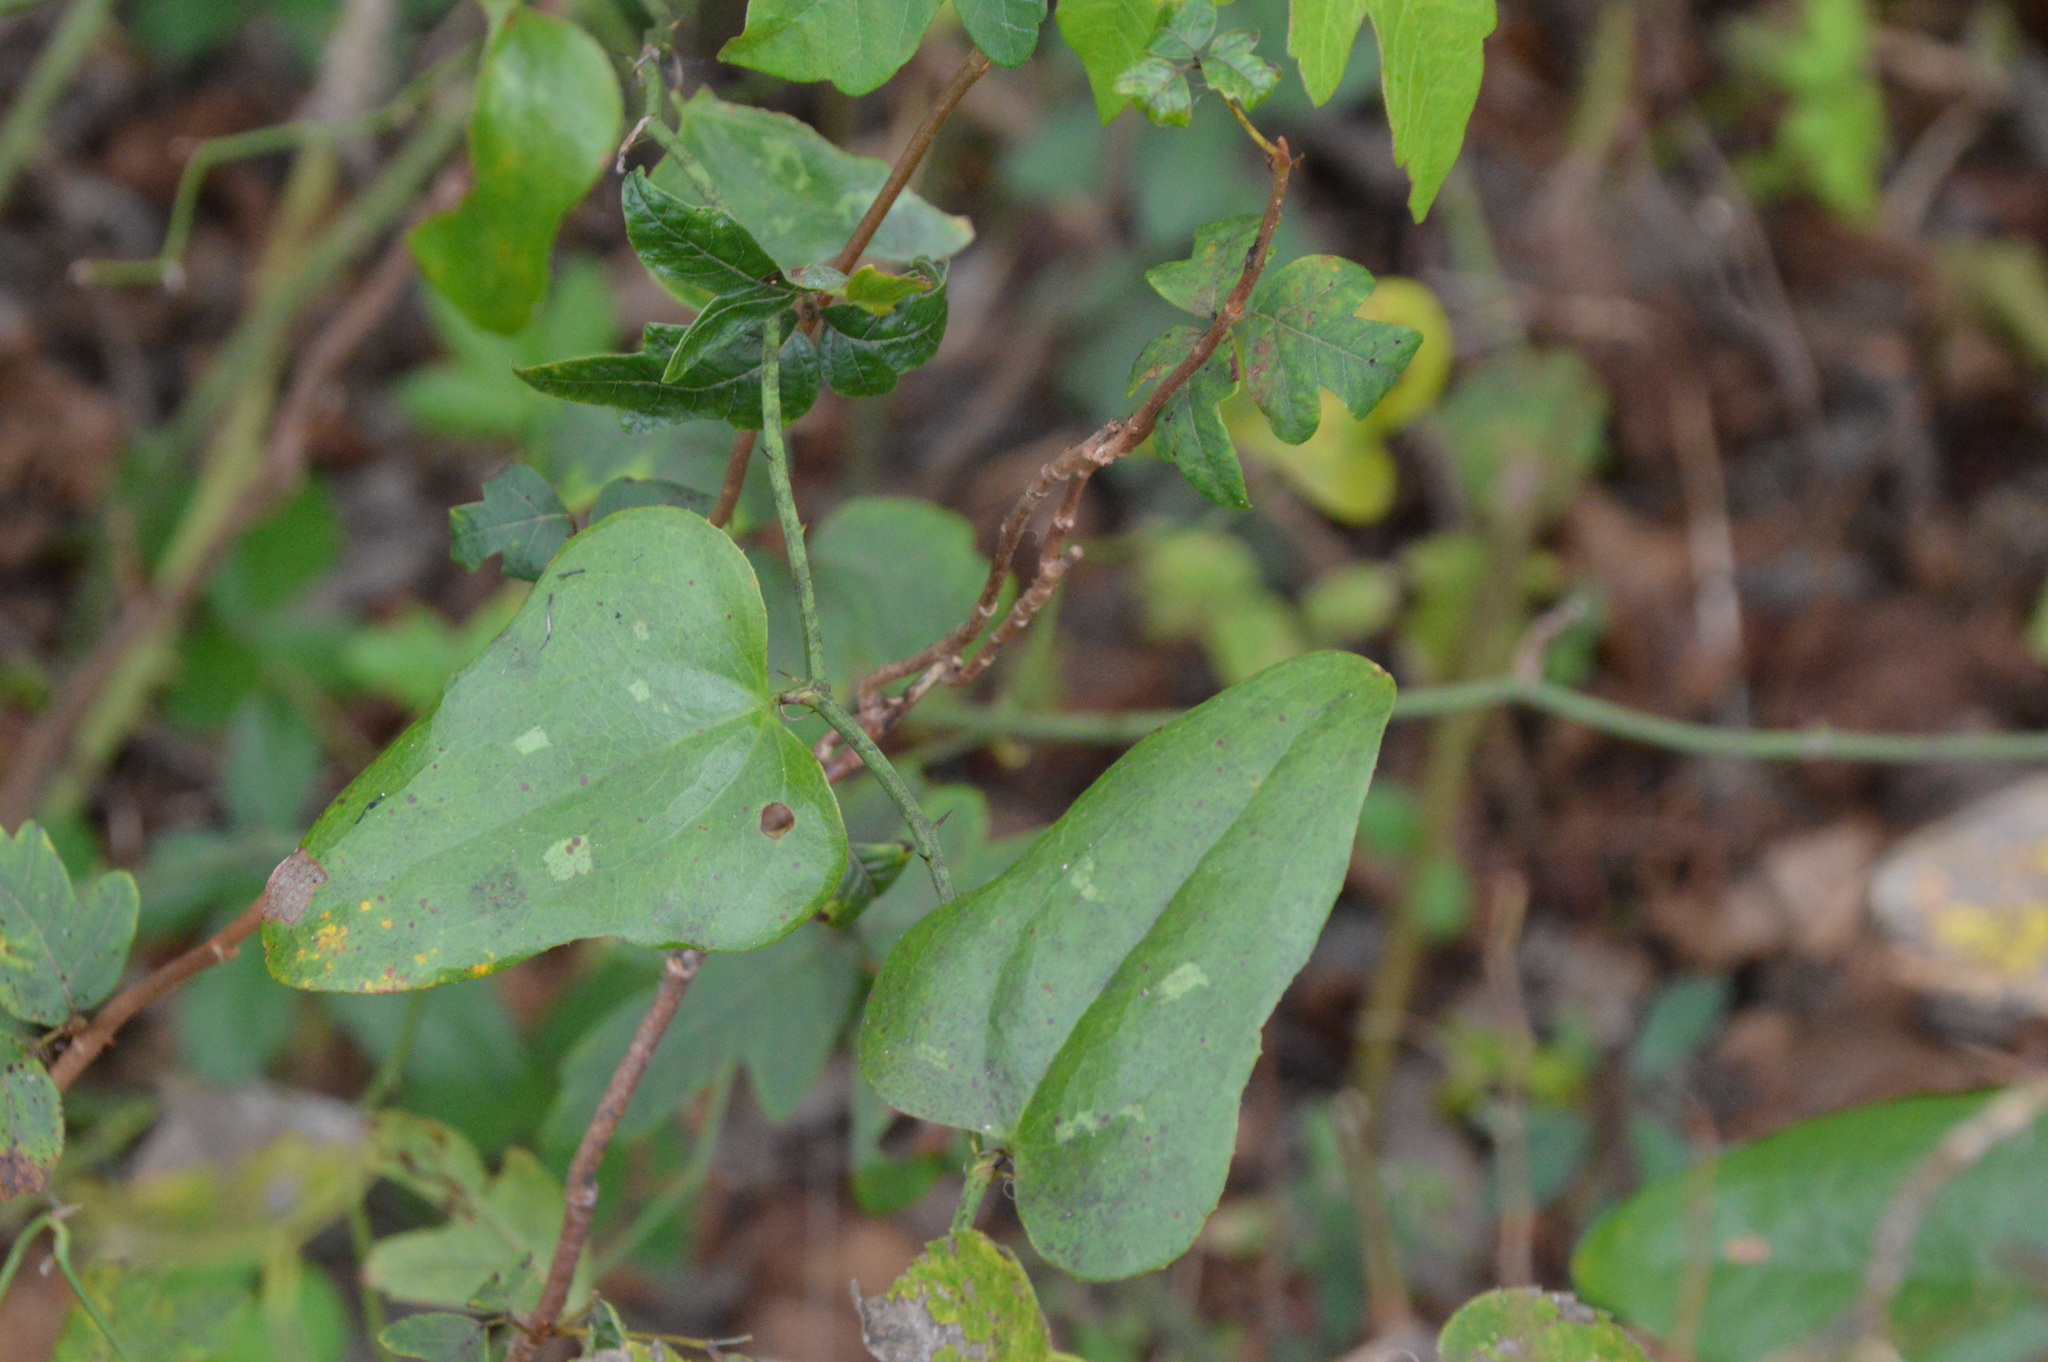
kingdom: Plantae
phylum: Tracheophyta
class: Liliopsida
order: Liliales
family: Smilacaceae
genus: Smilax
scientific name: Smilax bona-nox
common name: Catbrier
